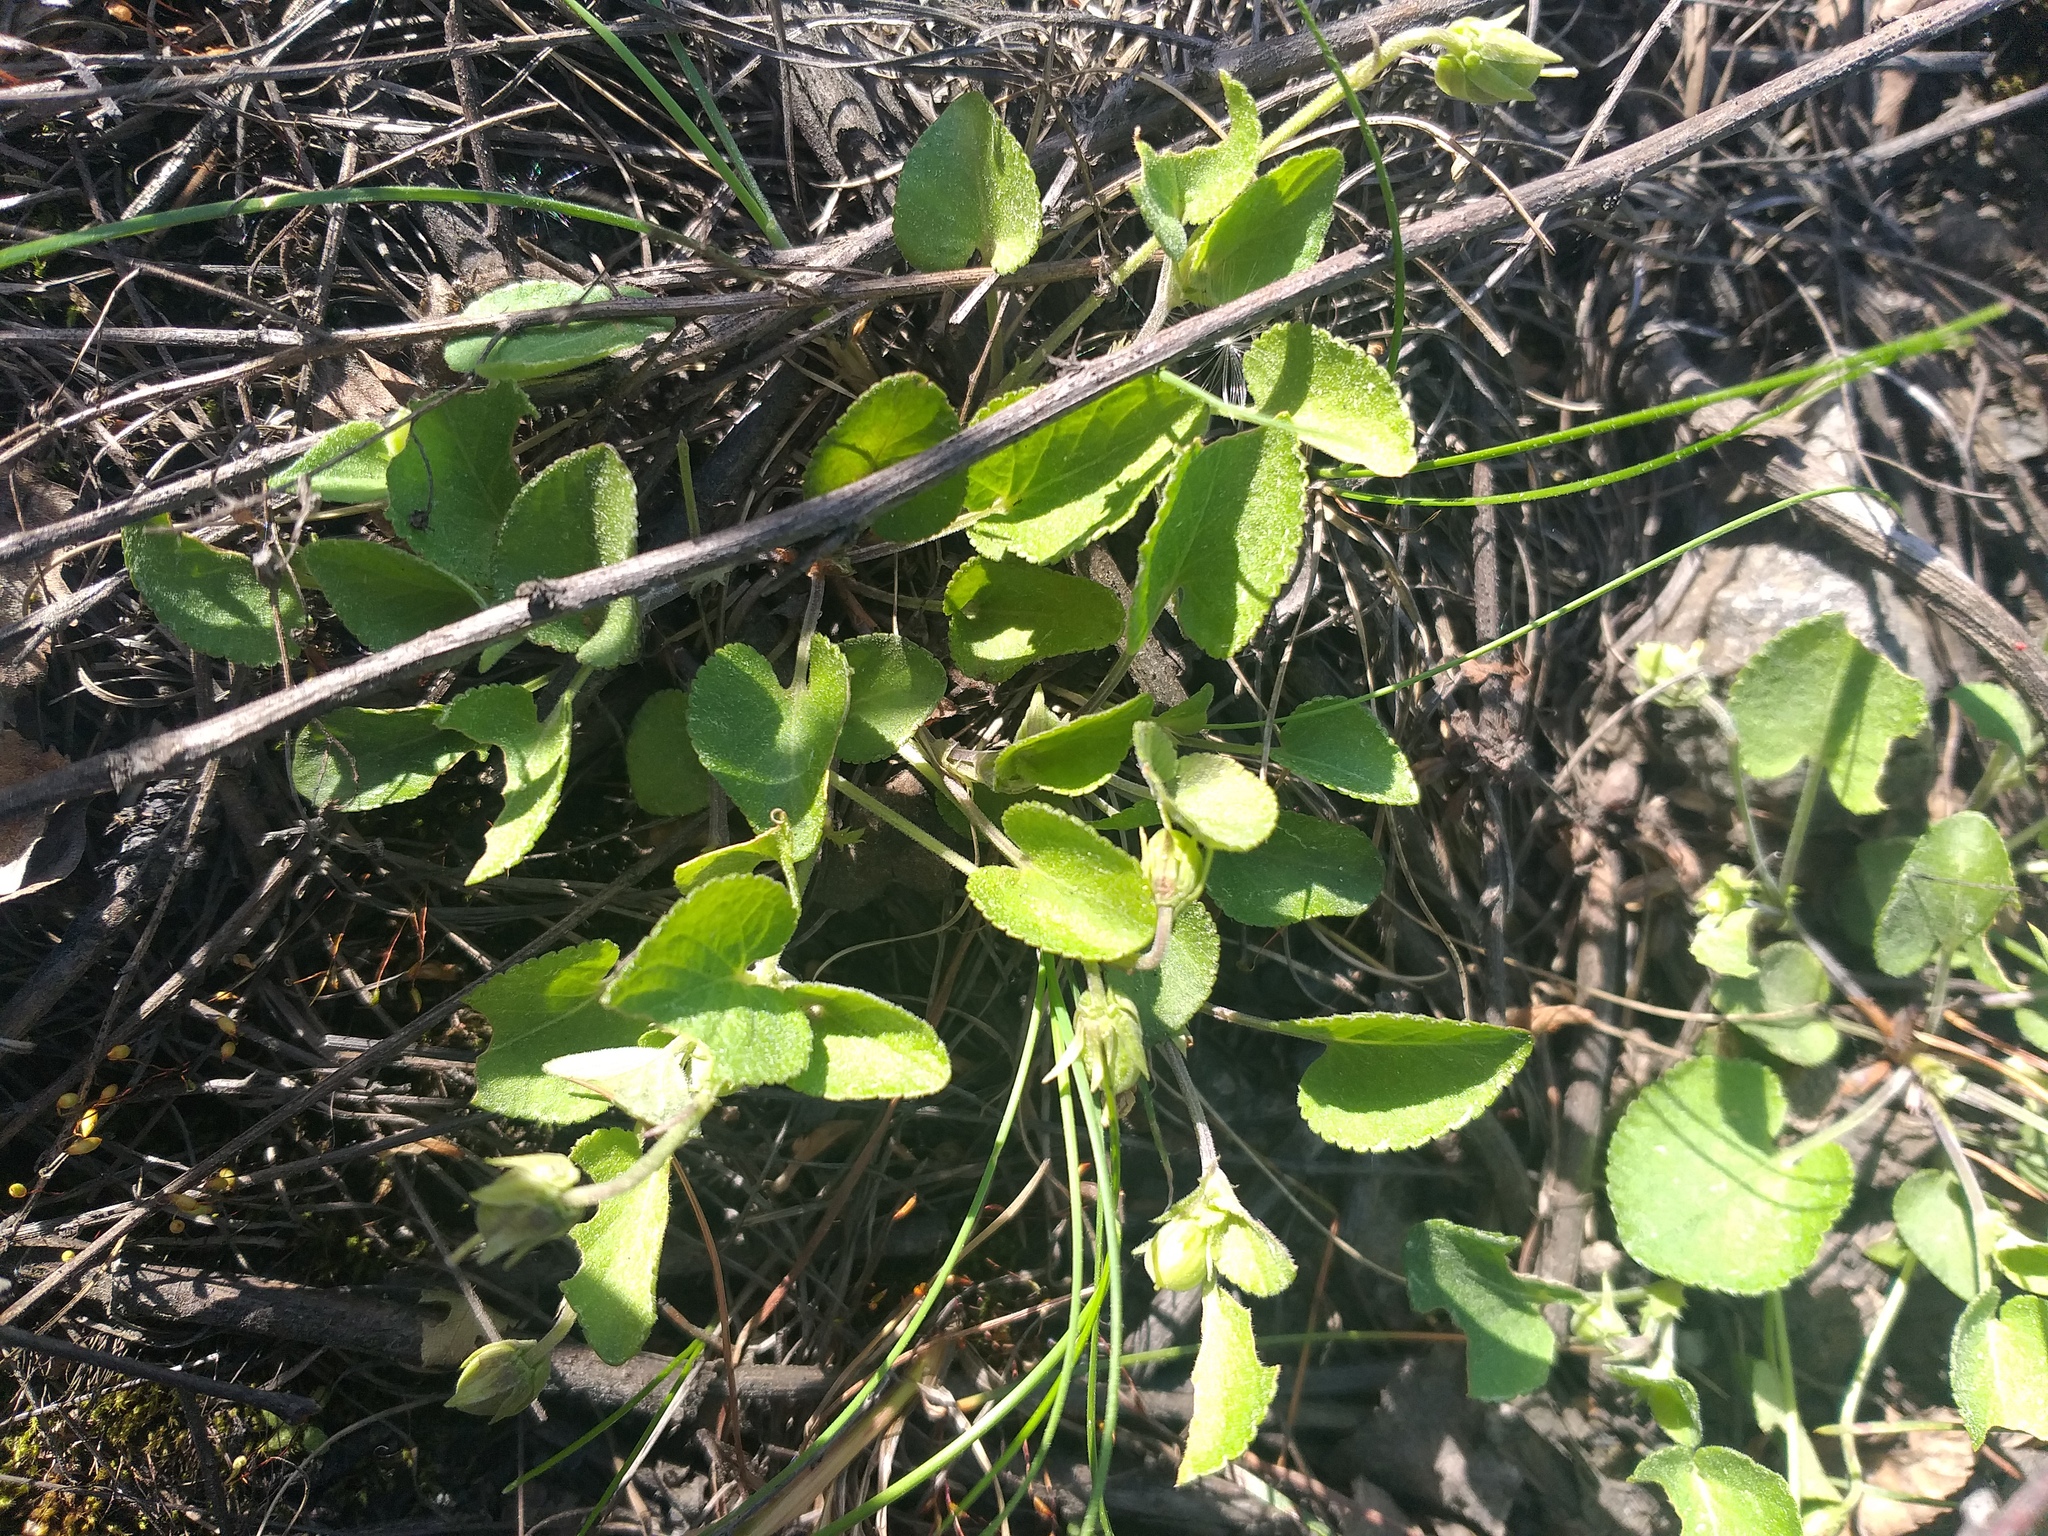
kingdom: Plantae
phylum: Tracheophyta
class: Magnoliopsida
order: Malpighiales
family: Violaceae
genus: Viola
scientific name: Viola rupestris
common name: Teesdale violet
